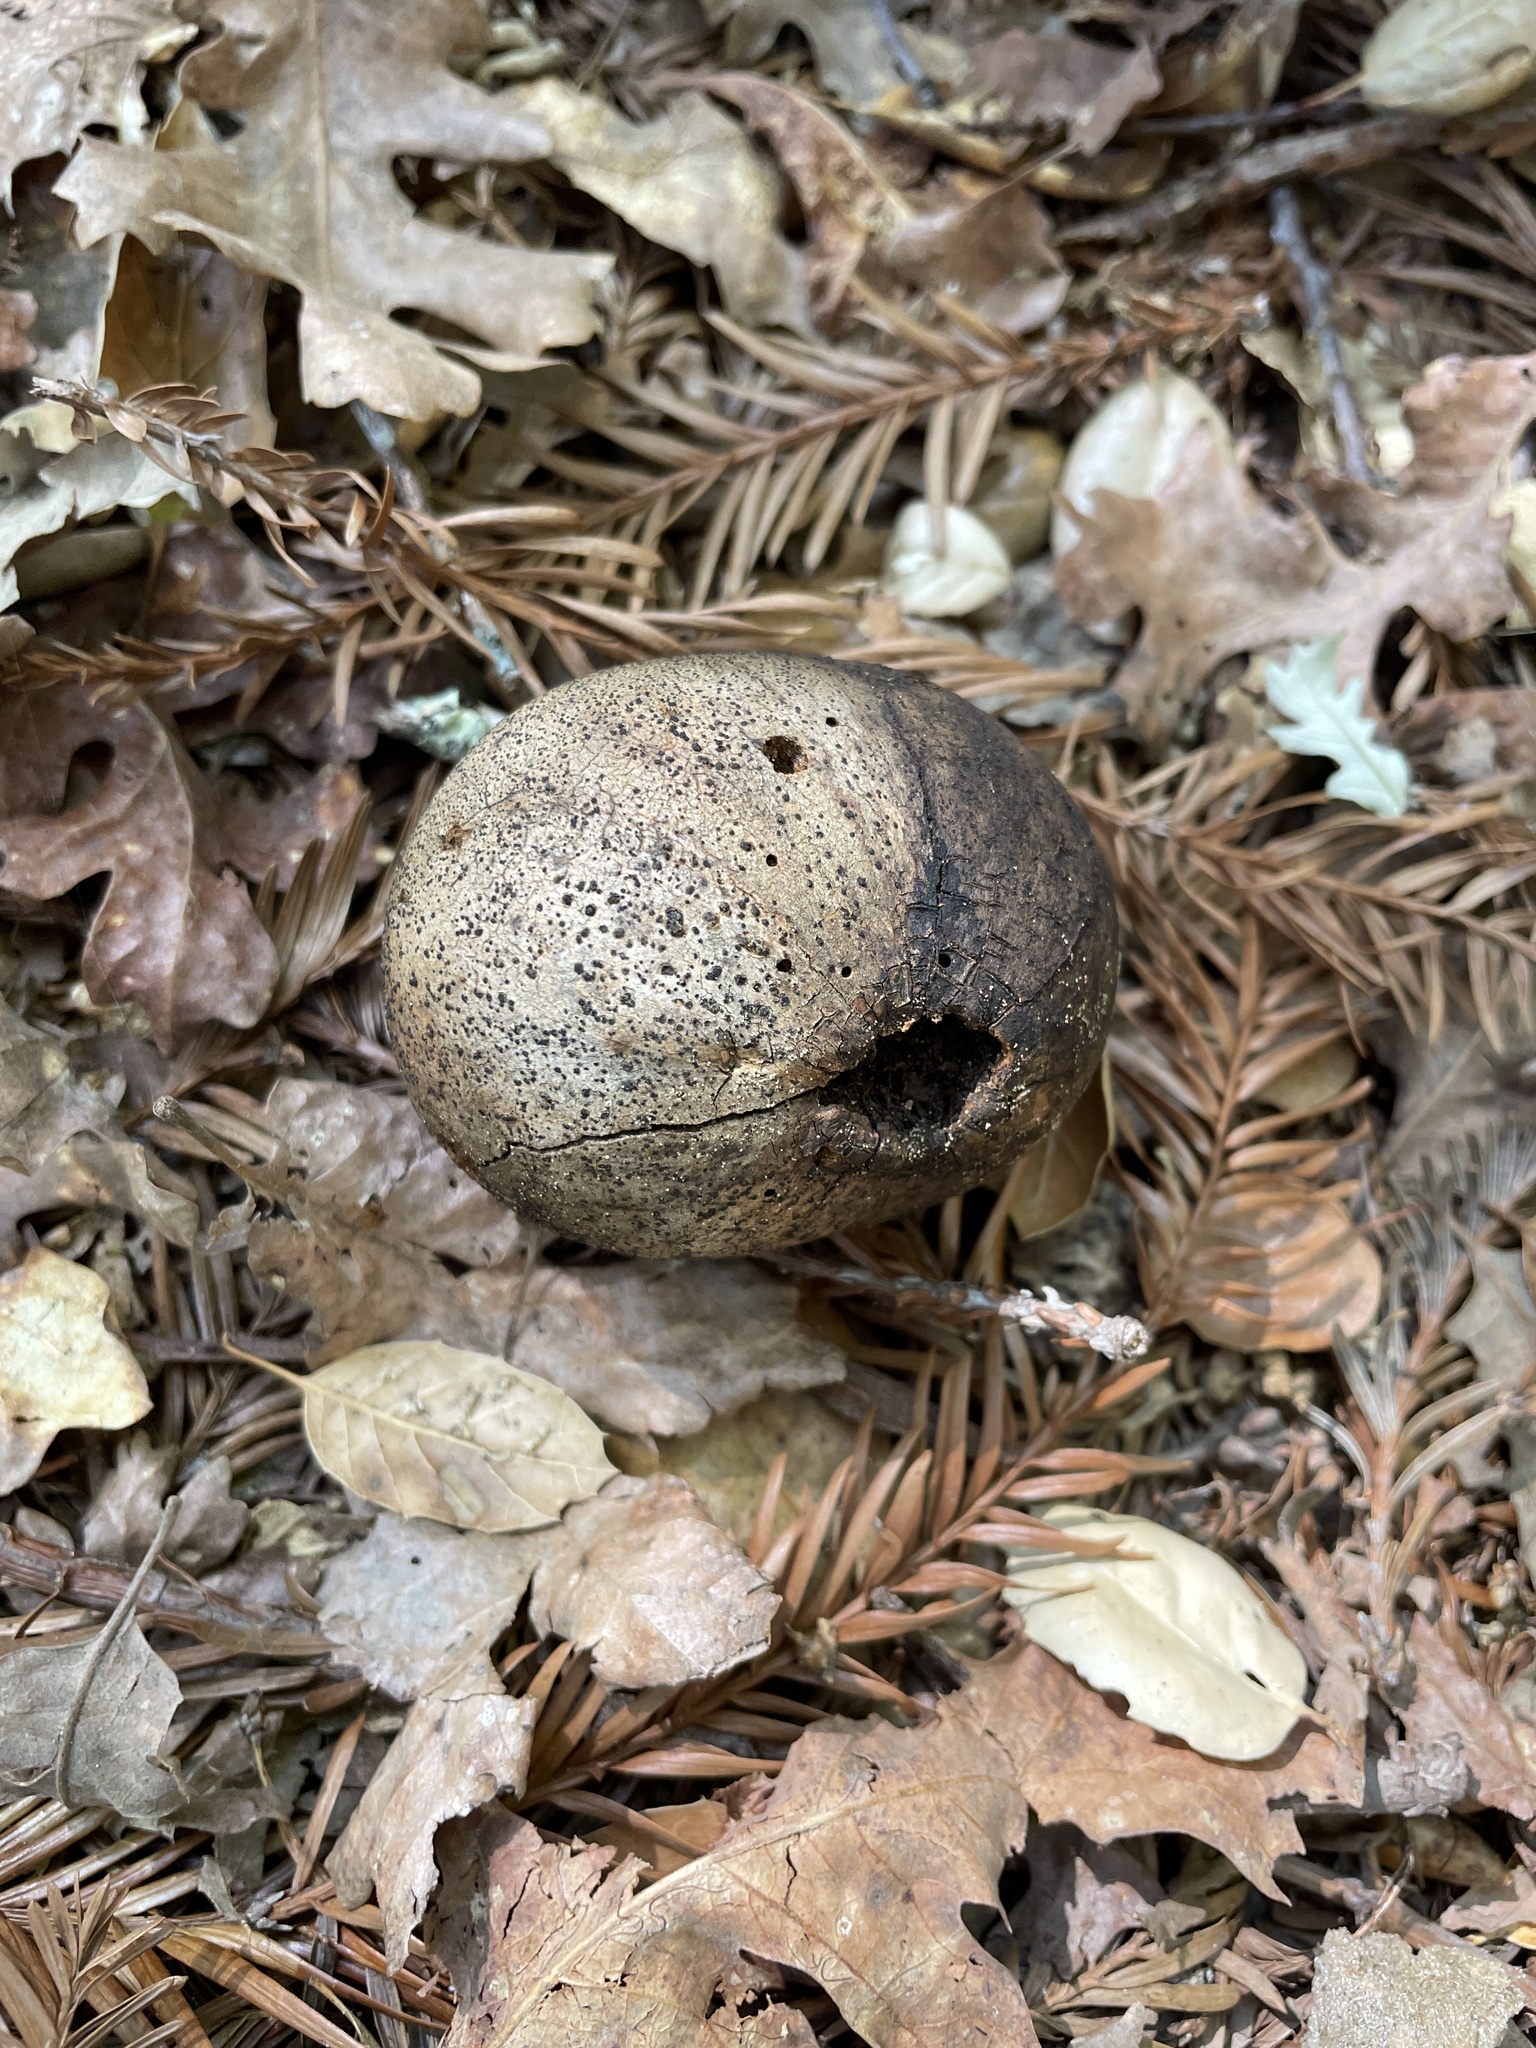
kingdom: Animalia
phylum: Arthropoda
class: Insecta
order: Hymenoptera
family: Cynipidae
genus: Andricus
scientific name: Andricus quercuscalifornicus
